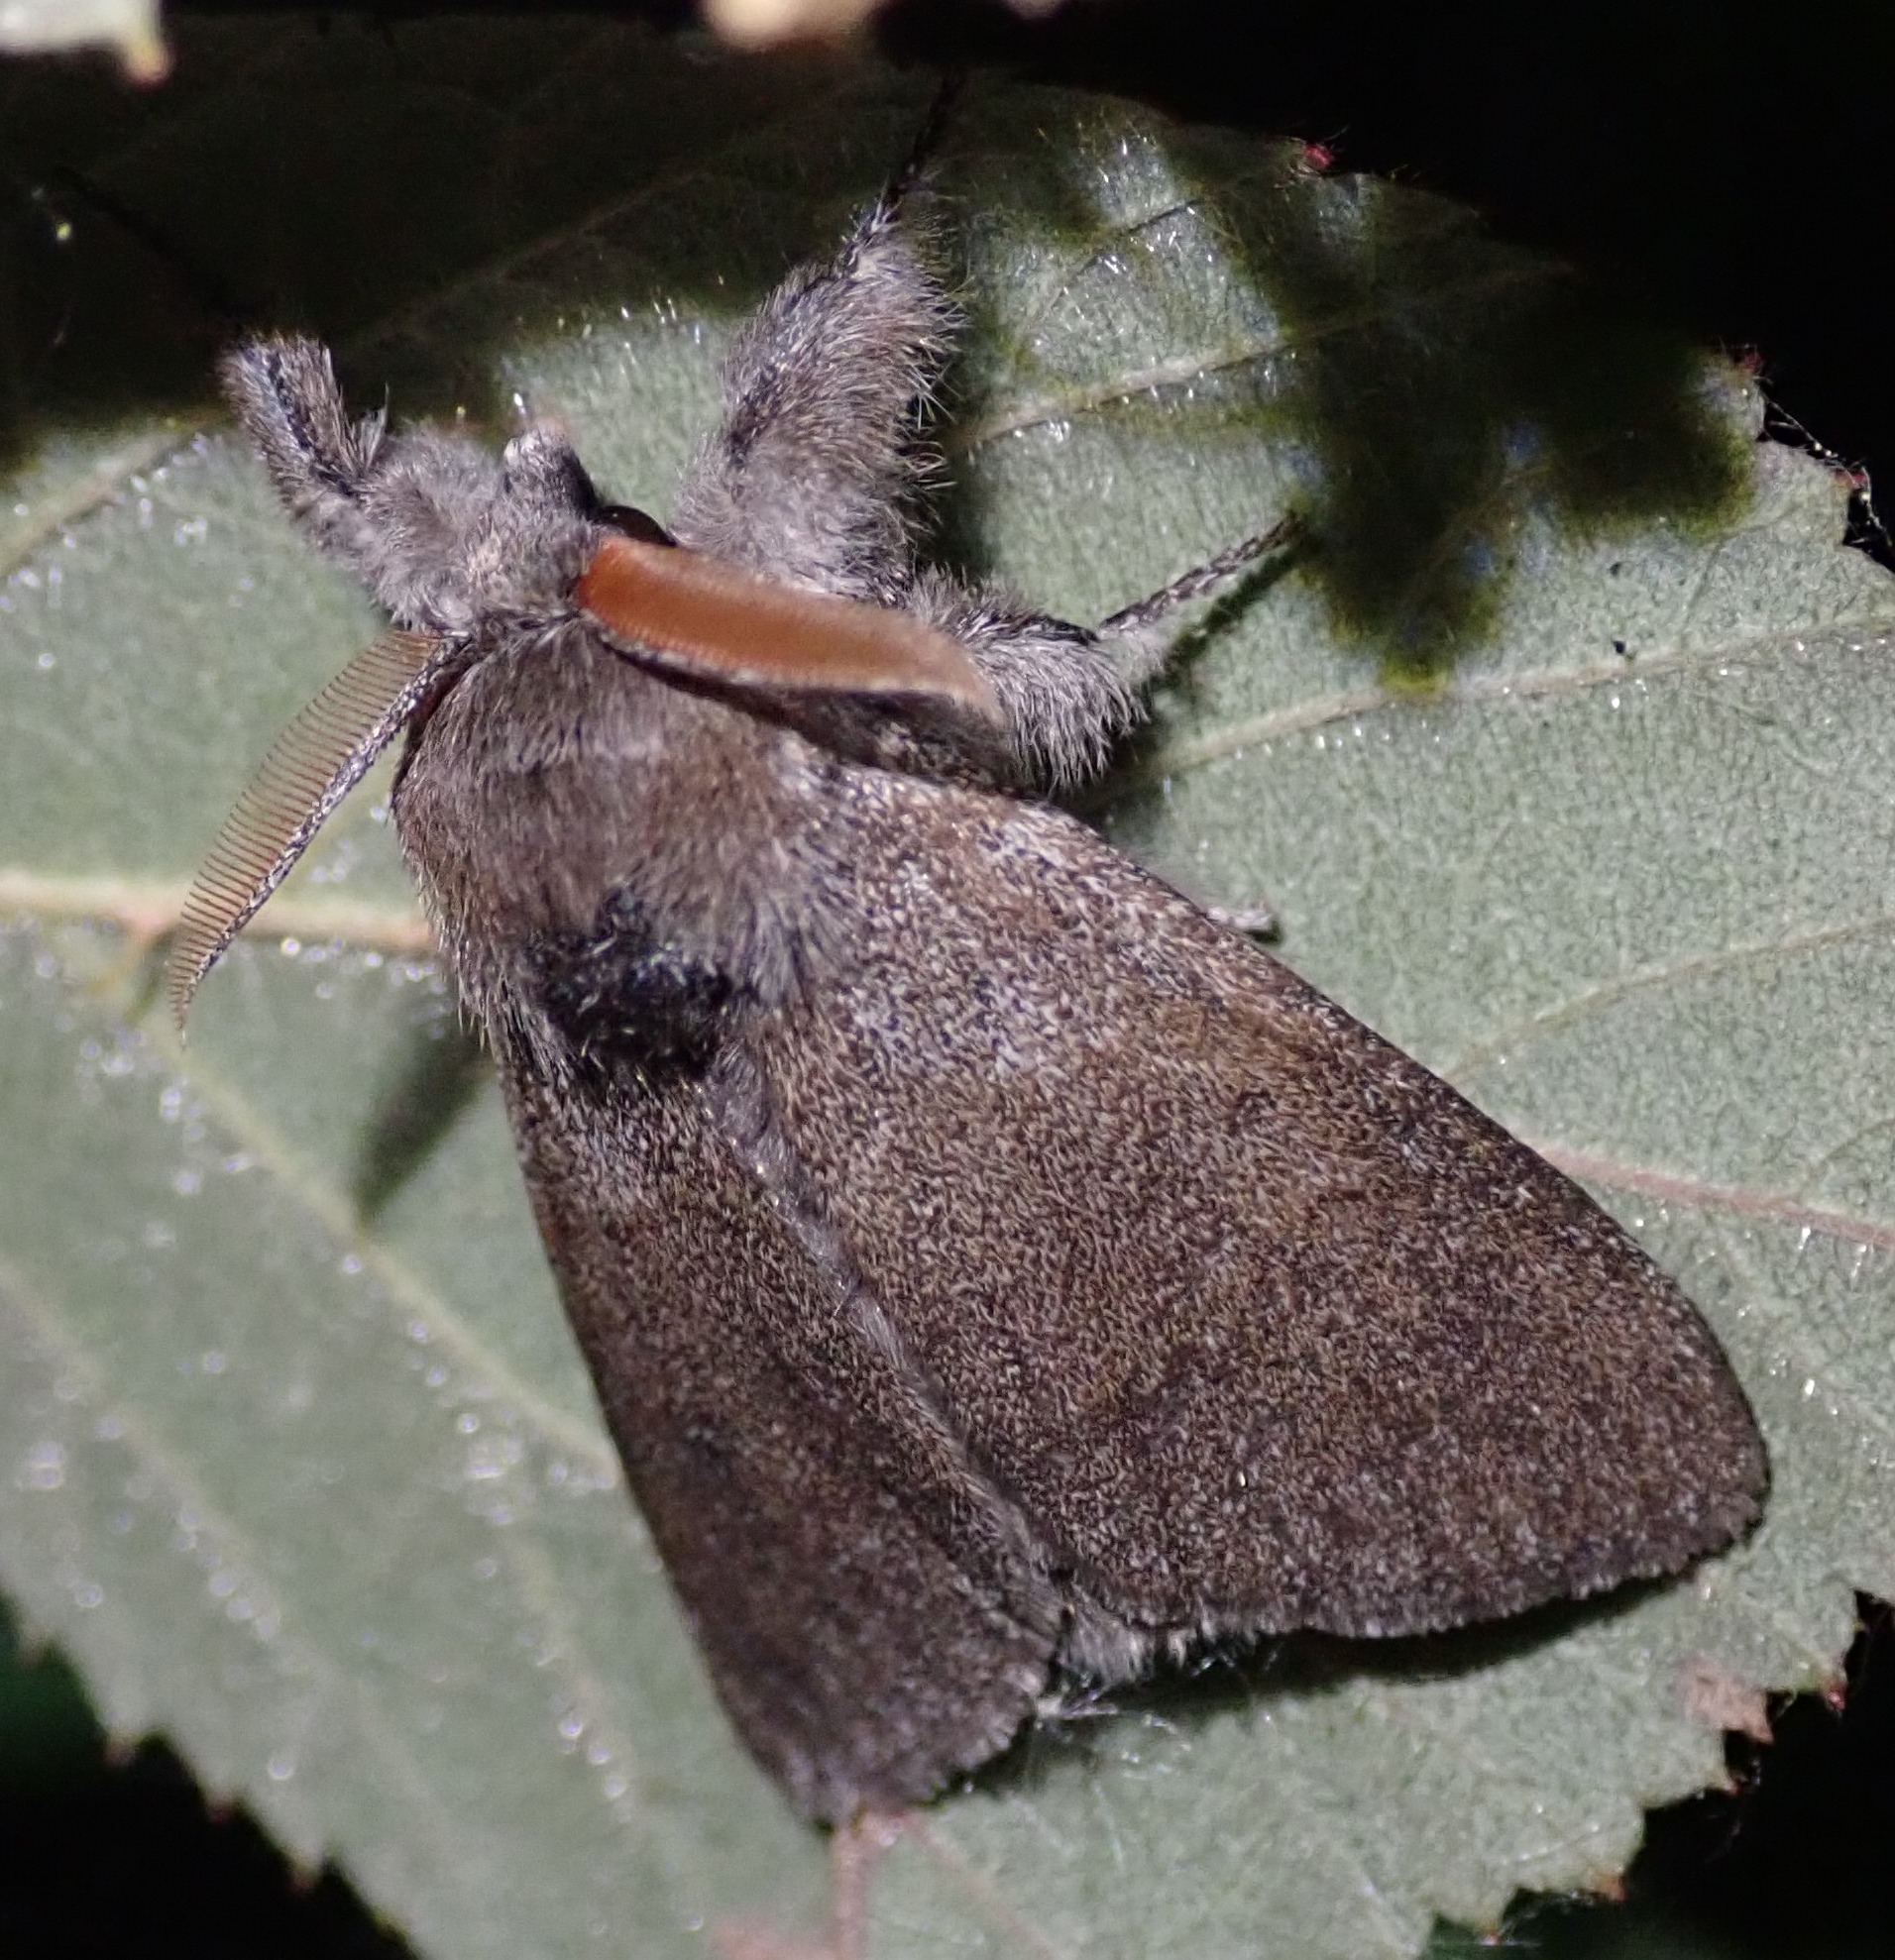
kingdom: Animalia
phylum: Arthropoda
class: Insecta
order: Lepidoptera
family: Erebidae
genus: Calliteara
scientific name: Calliteara pudibunda
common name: Pale tussock
